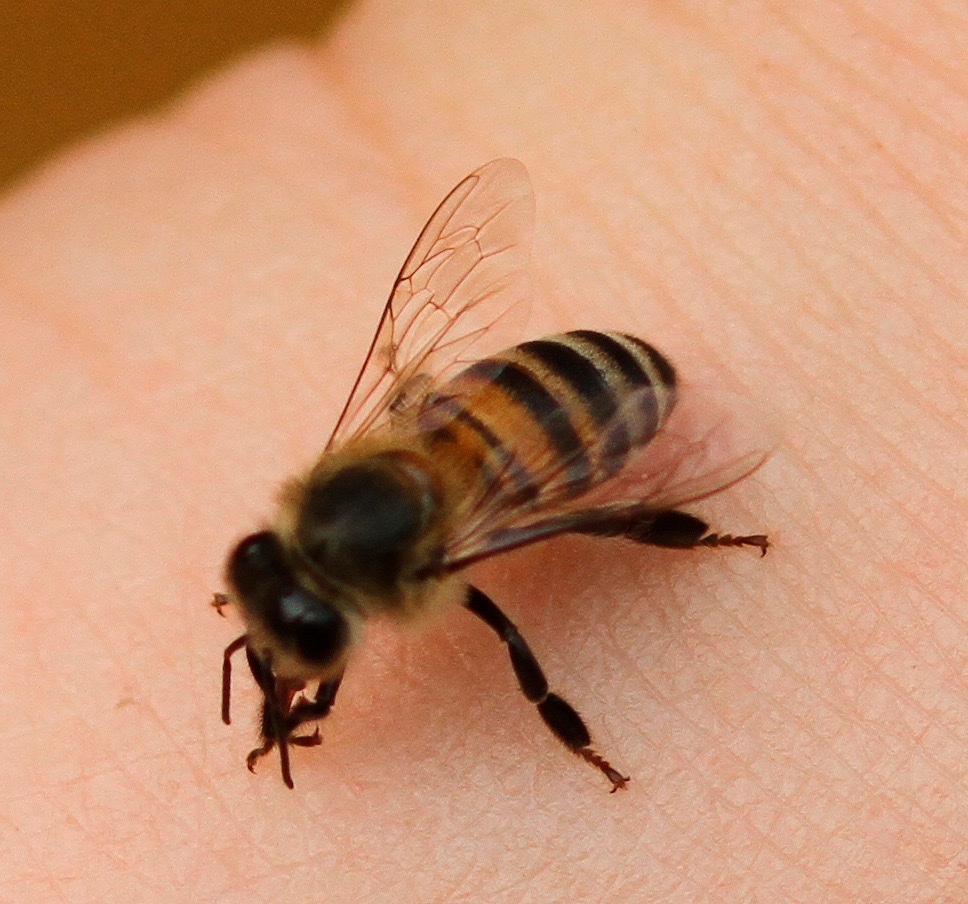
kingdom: Animalia
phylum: Arthropoda
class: Insecta
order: Hymenoptera
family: Apidae
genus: Apis
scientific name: Apis mellifera
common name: Honey bee
